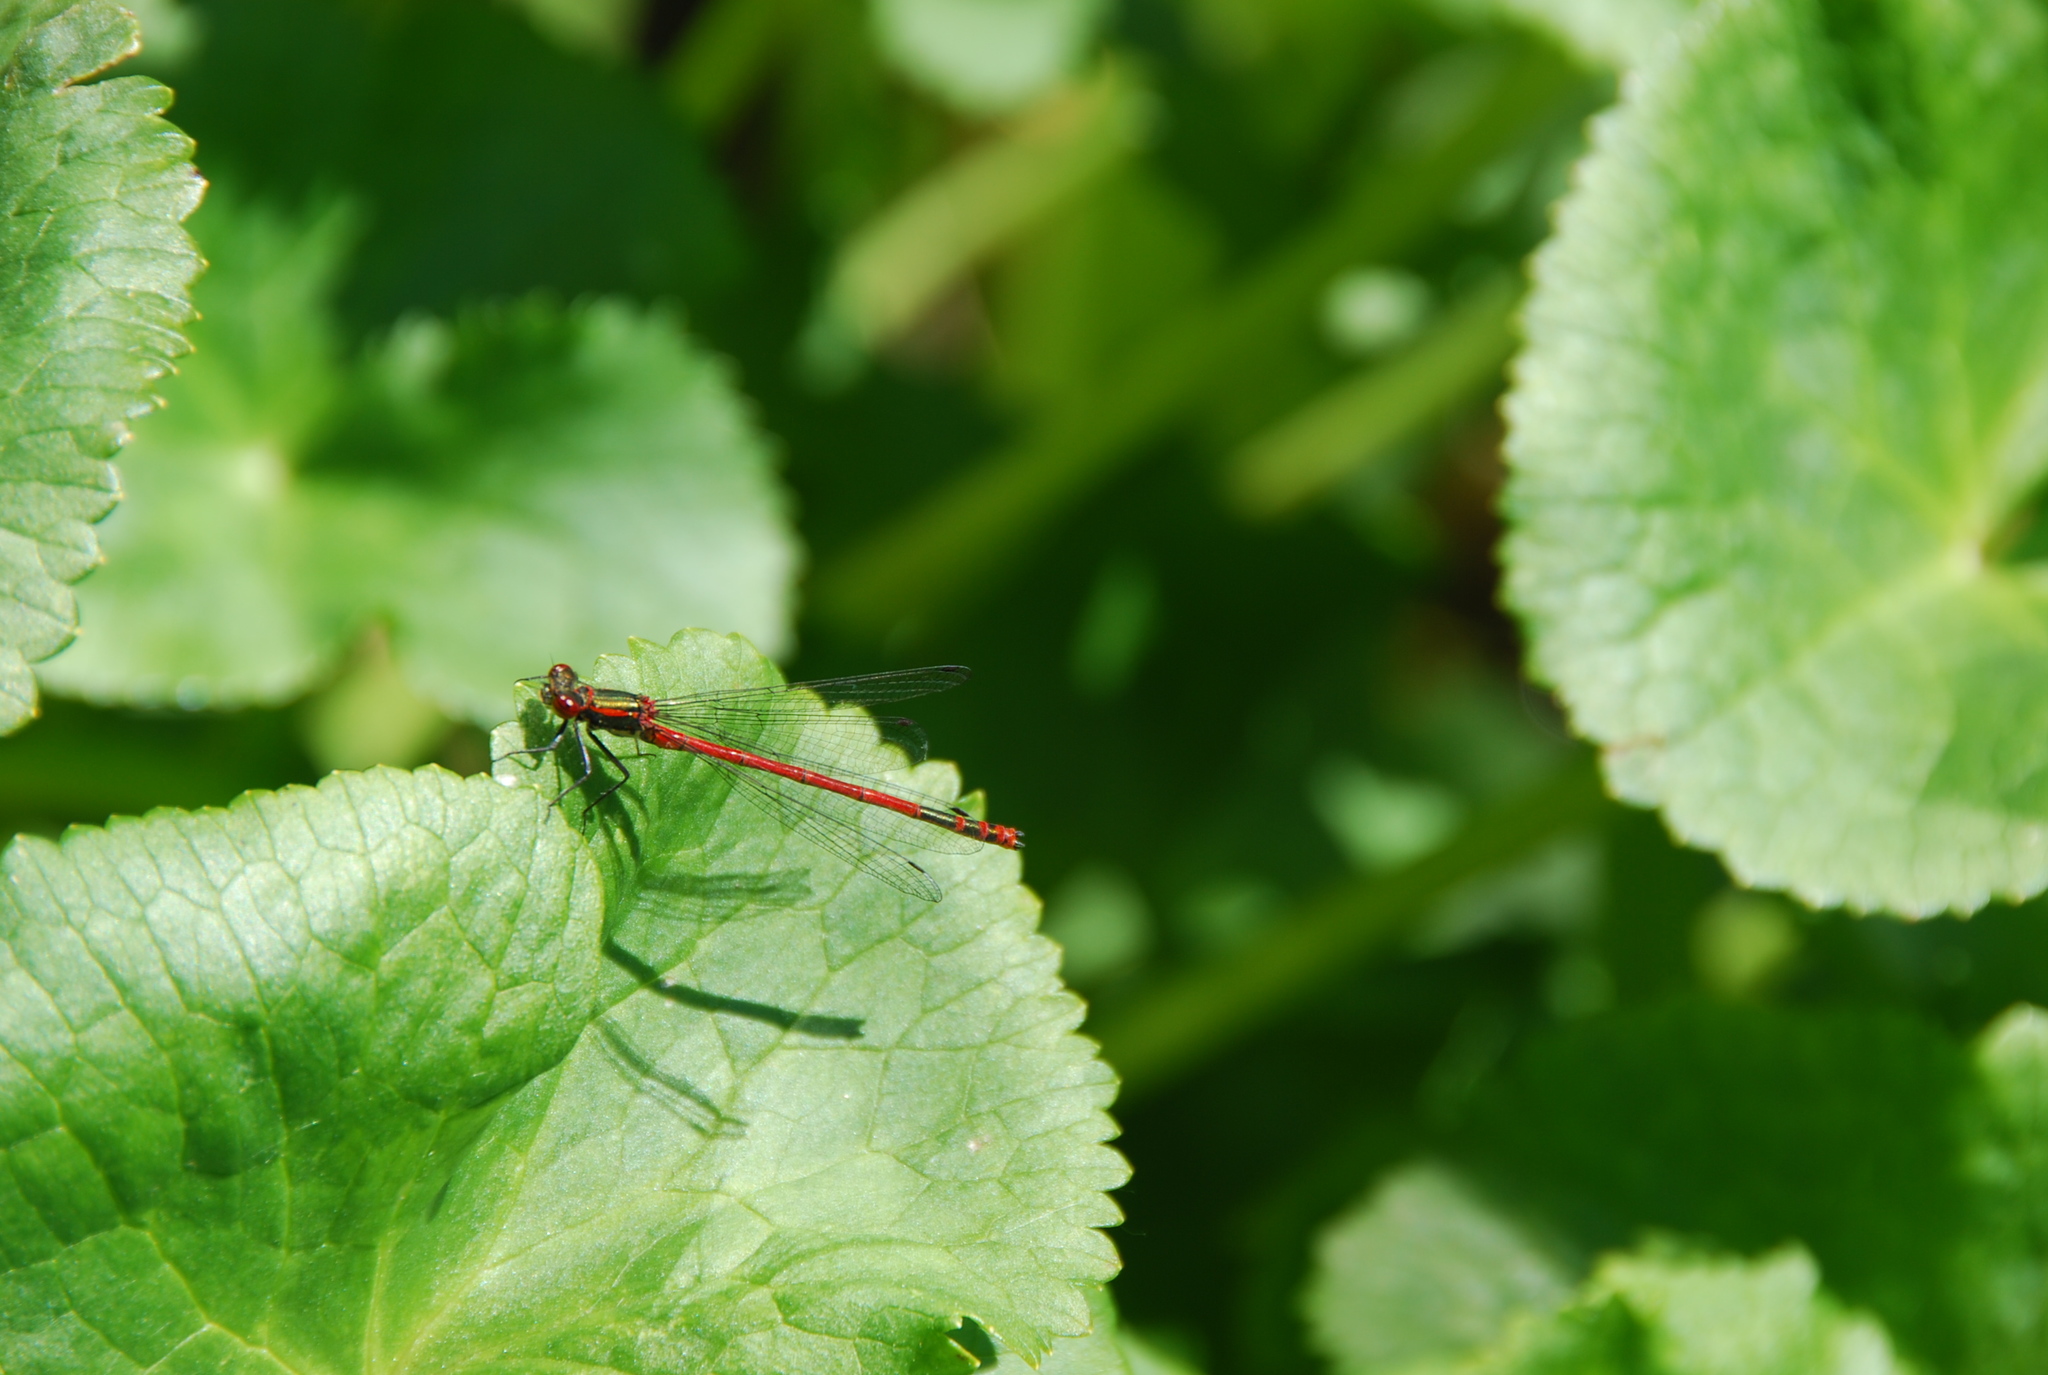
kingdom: Animalia
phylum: Arthropoda
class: Insecta
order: Odonata
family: Coenagrionidae
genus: Pyrrhosoma
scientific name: Pyrrhosoma nymphula
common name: Large red damsel
